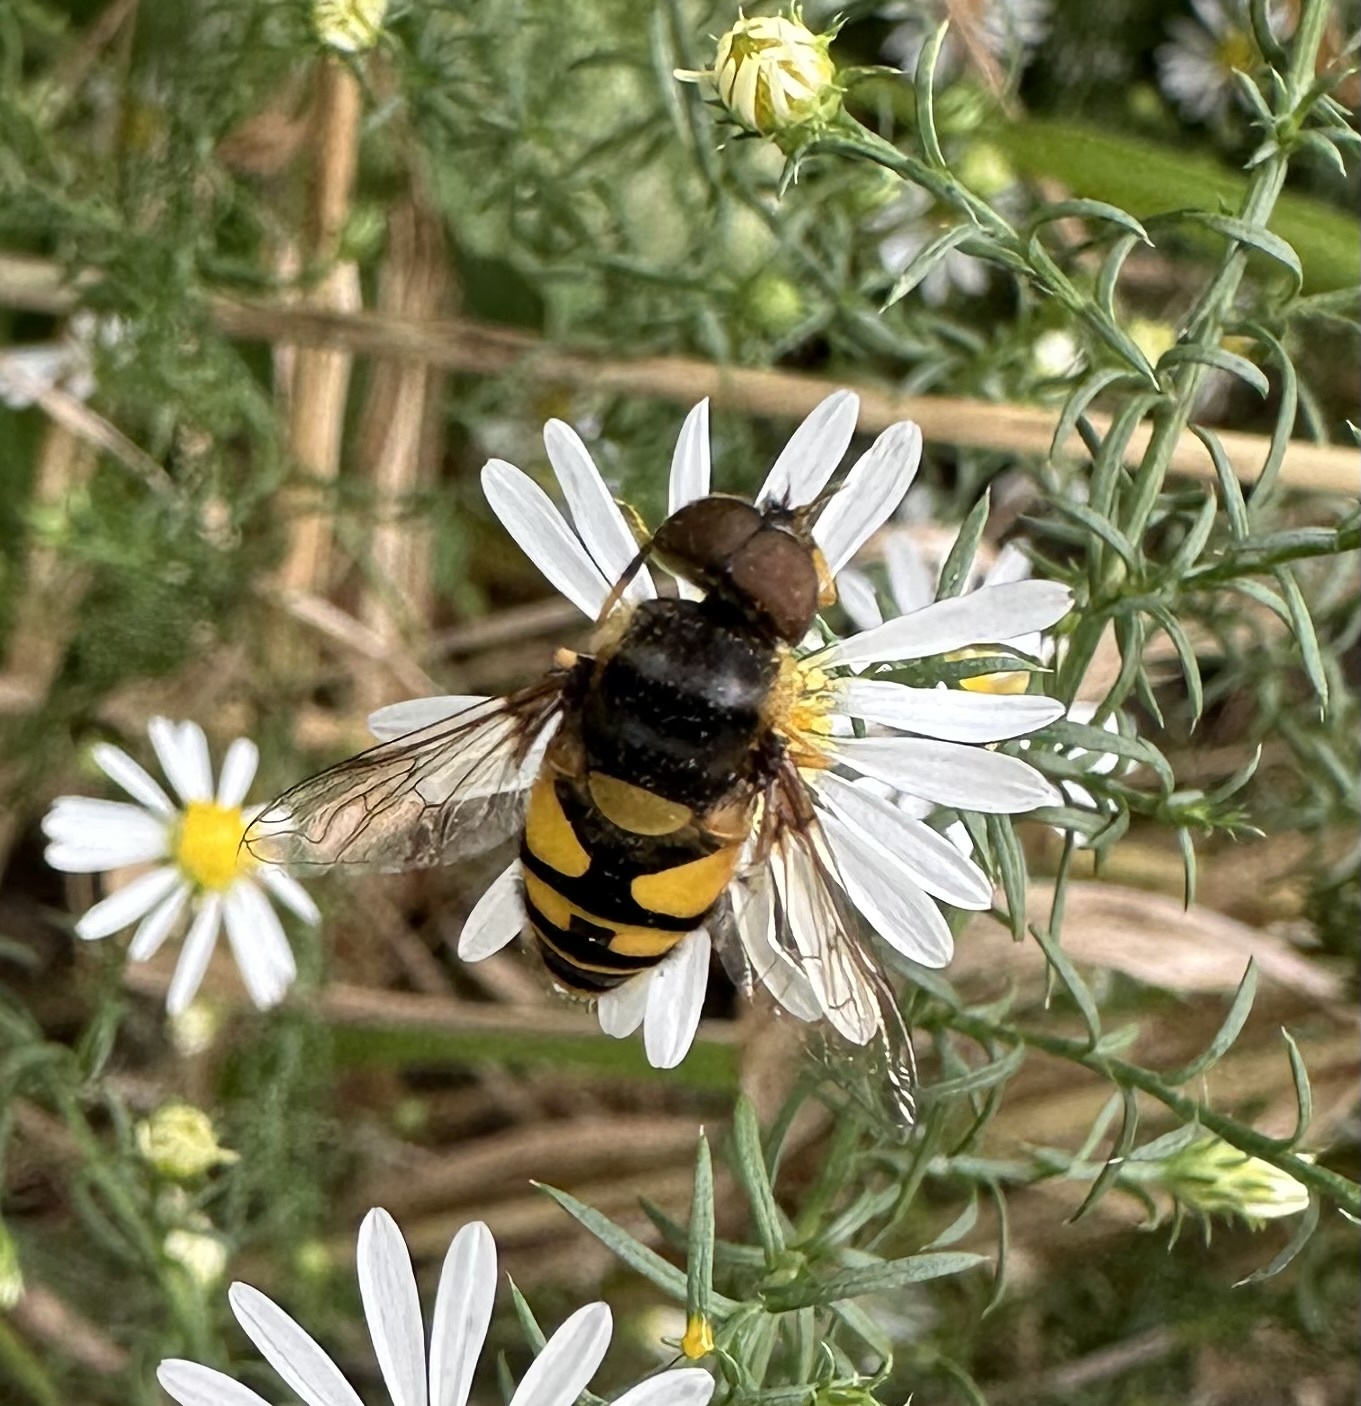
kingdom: Animalia
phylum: Arthropoda
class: Insecta
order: Diptera
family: Syrphidae
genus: Eristalis
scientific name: Eristalis transversa
